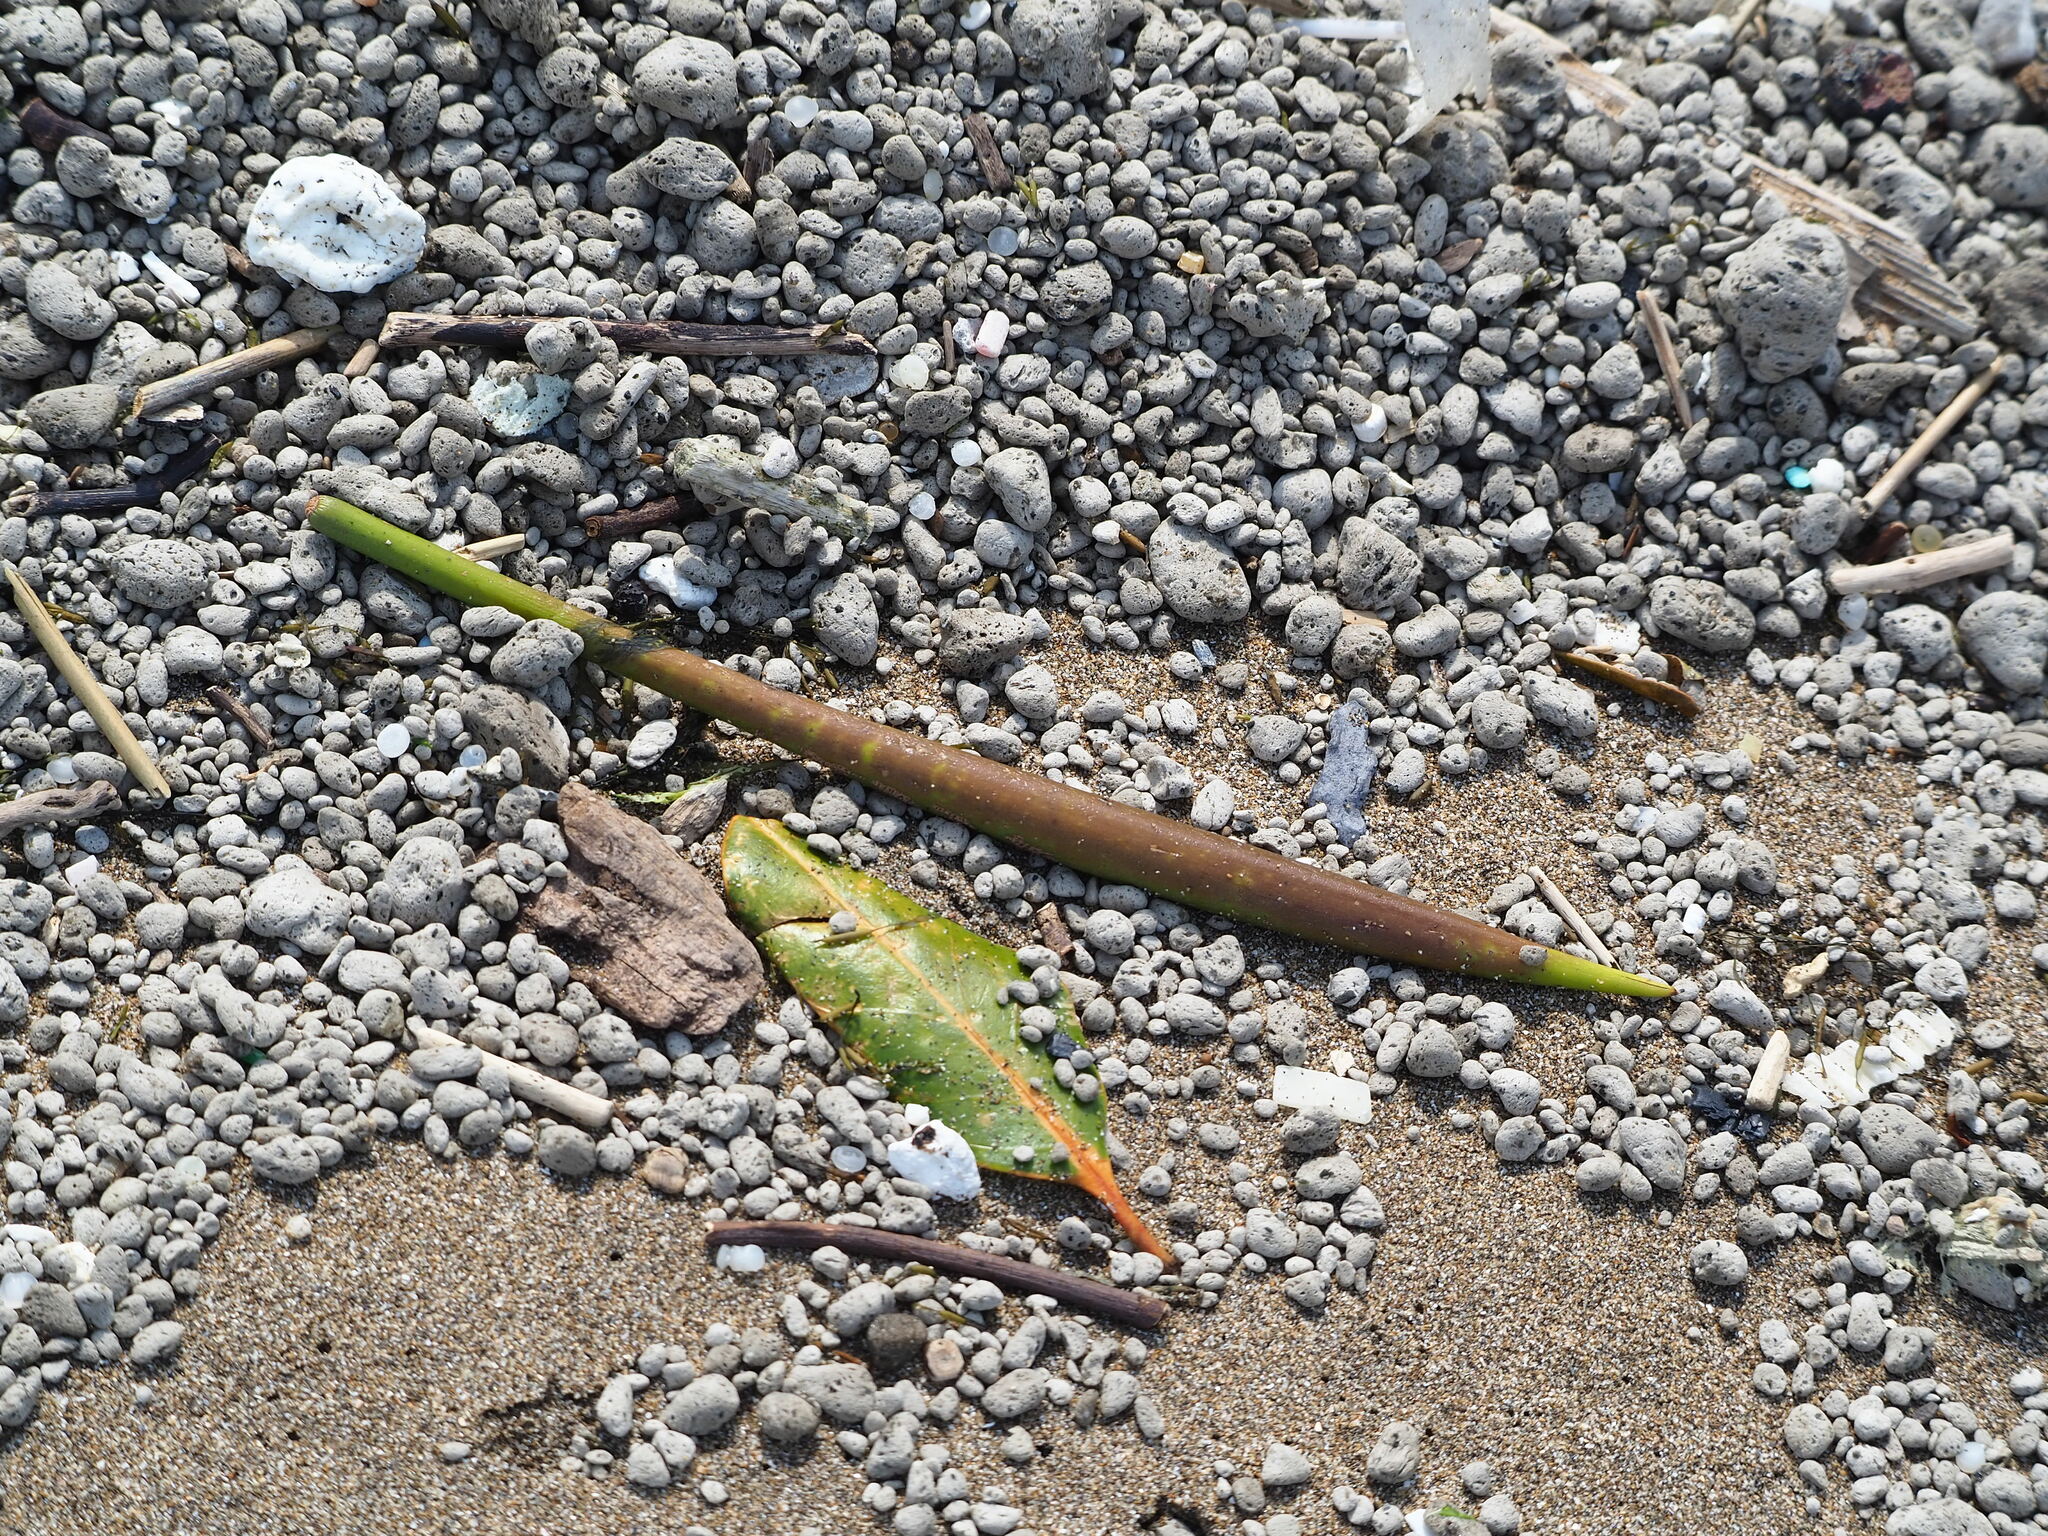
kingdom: Plantae
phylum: Tracheophyta
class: Magnoliopsida
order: Malpighiales
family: Rhizophoraceae
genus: Kandelia
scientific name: Kandelia obovata
